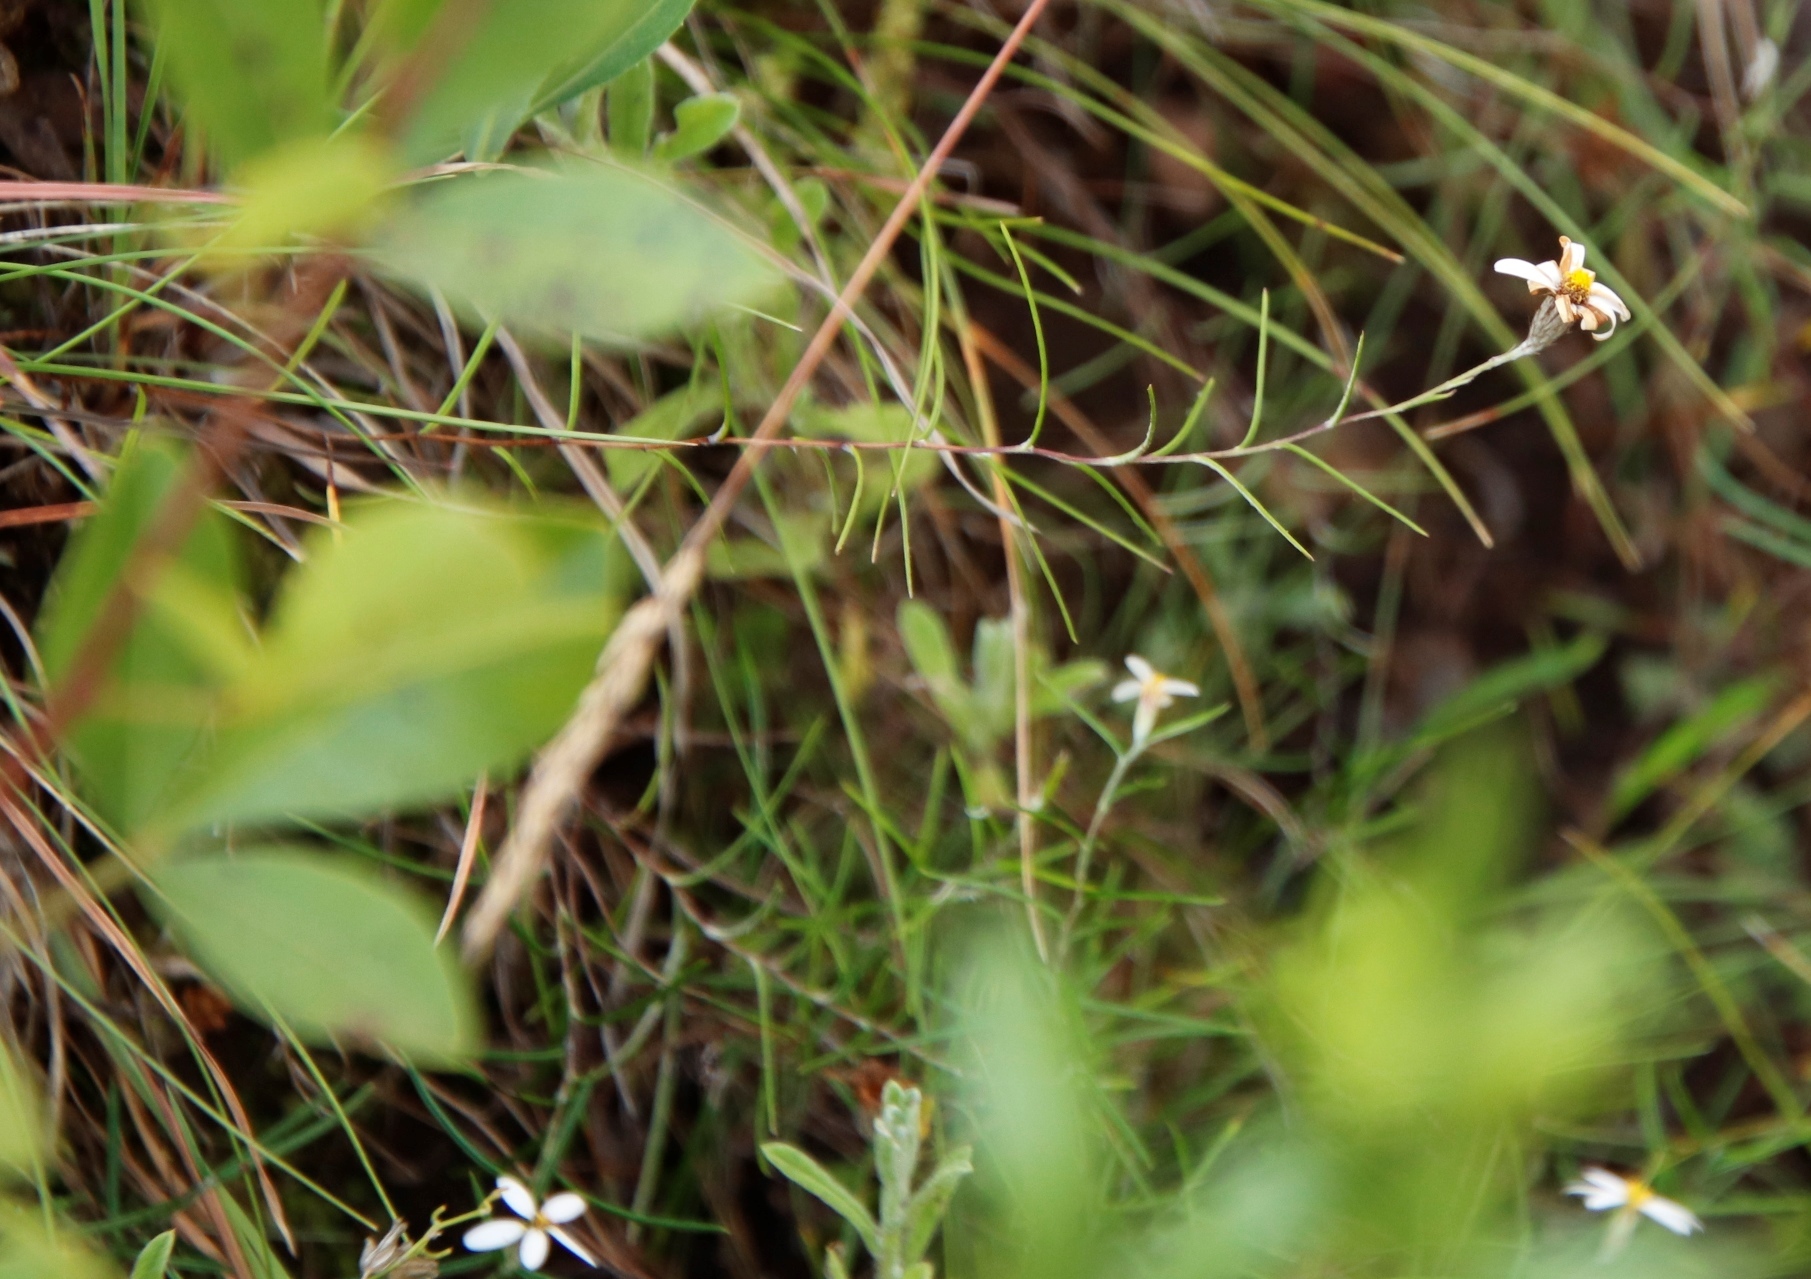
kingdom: Plantae
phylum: Tracheophyta
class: Magnoliopsida
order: Asterales
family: Asteraceae
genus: Athrixia
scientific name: Athrixia angustissima
